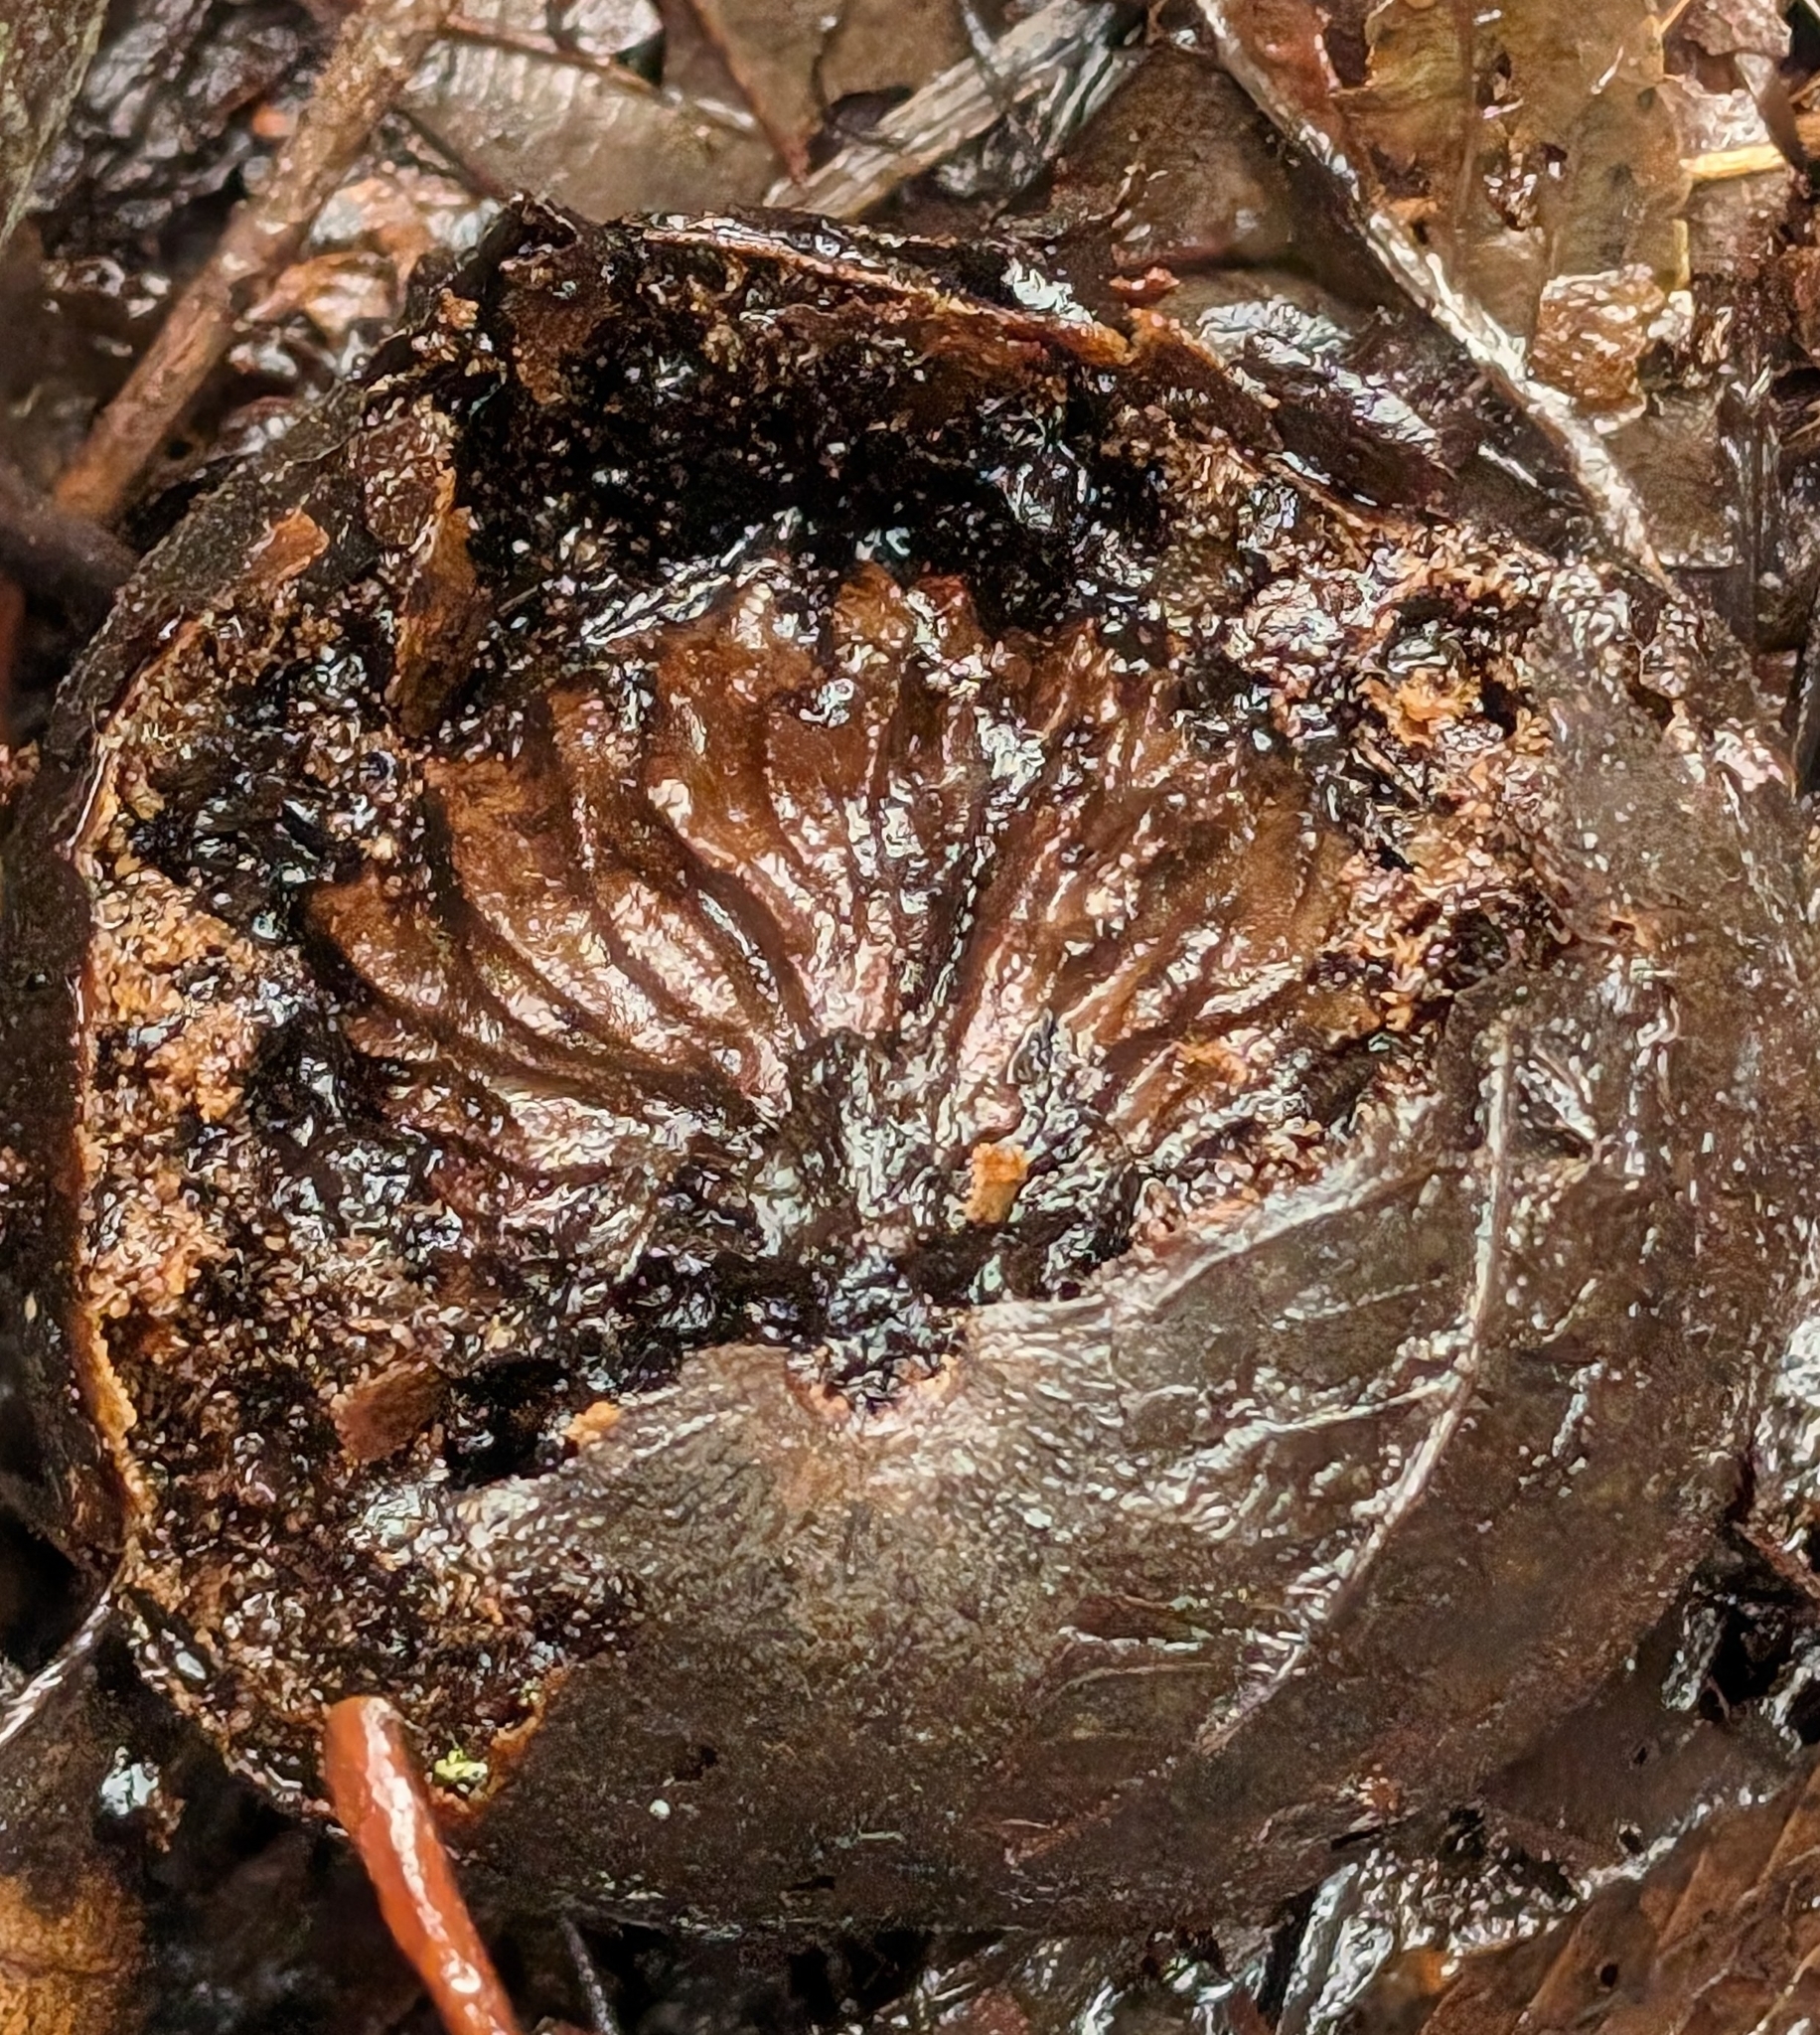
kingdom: Plantae
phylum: Tracheophyta
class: Magnoliopsida
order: Fagales
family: Juglandaceae
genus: Juglans
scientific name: Juglans nigra
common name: Black walnut
